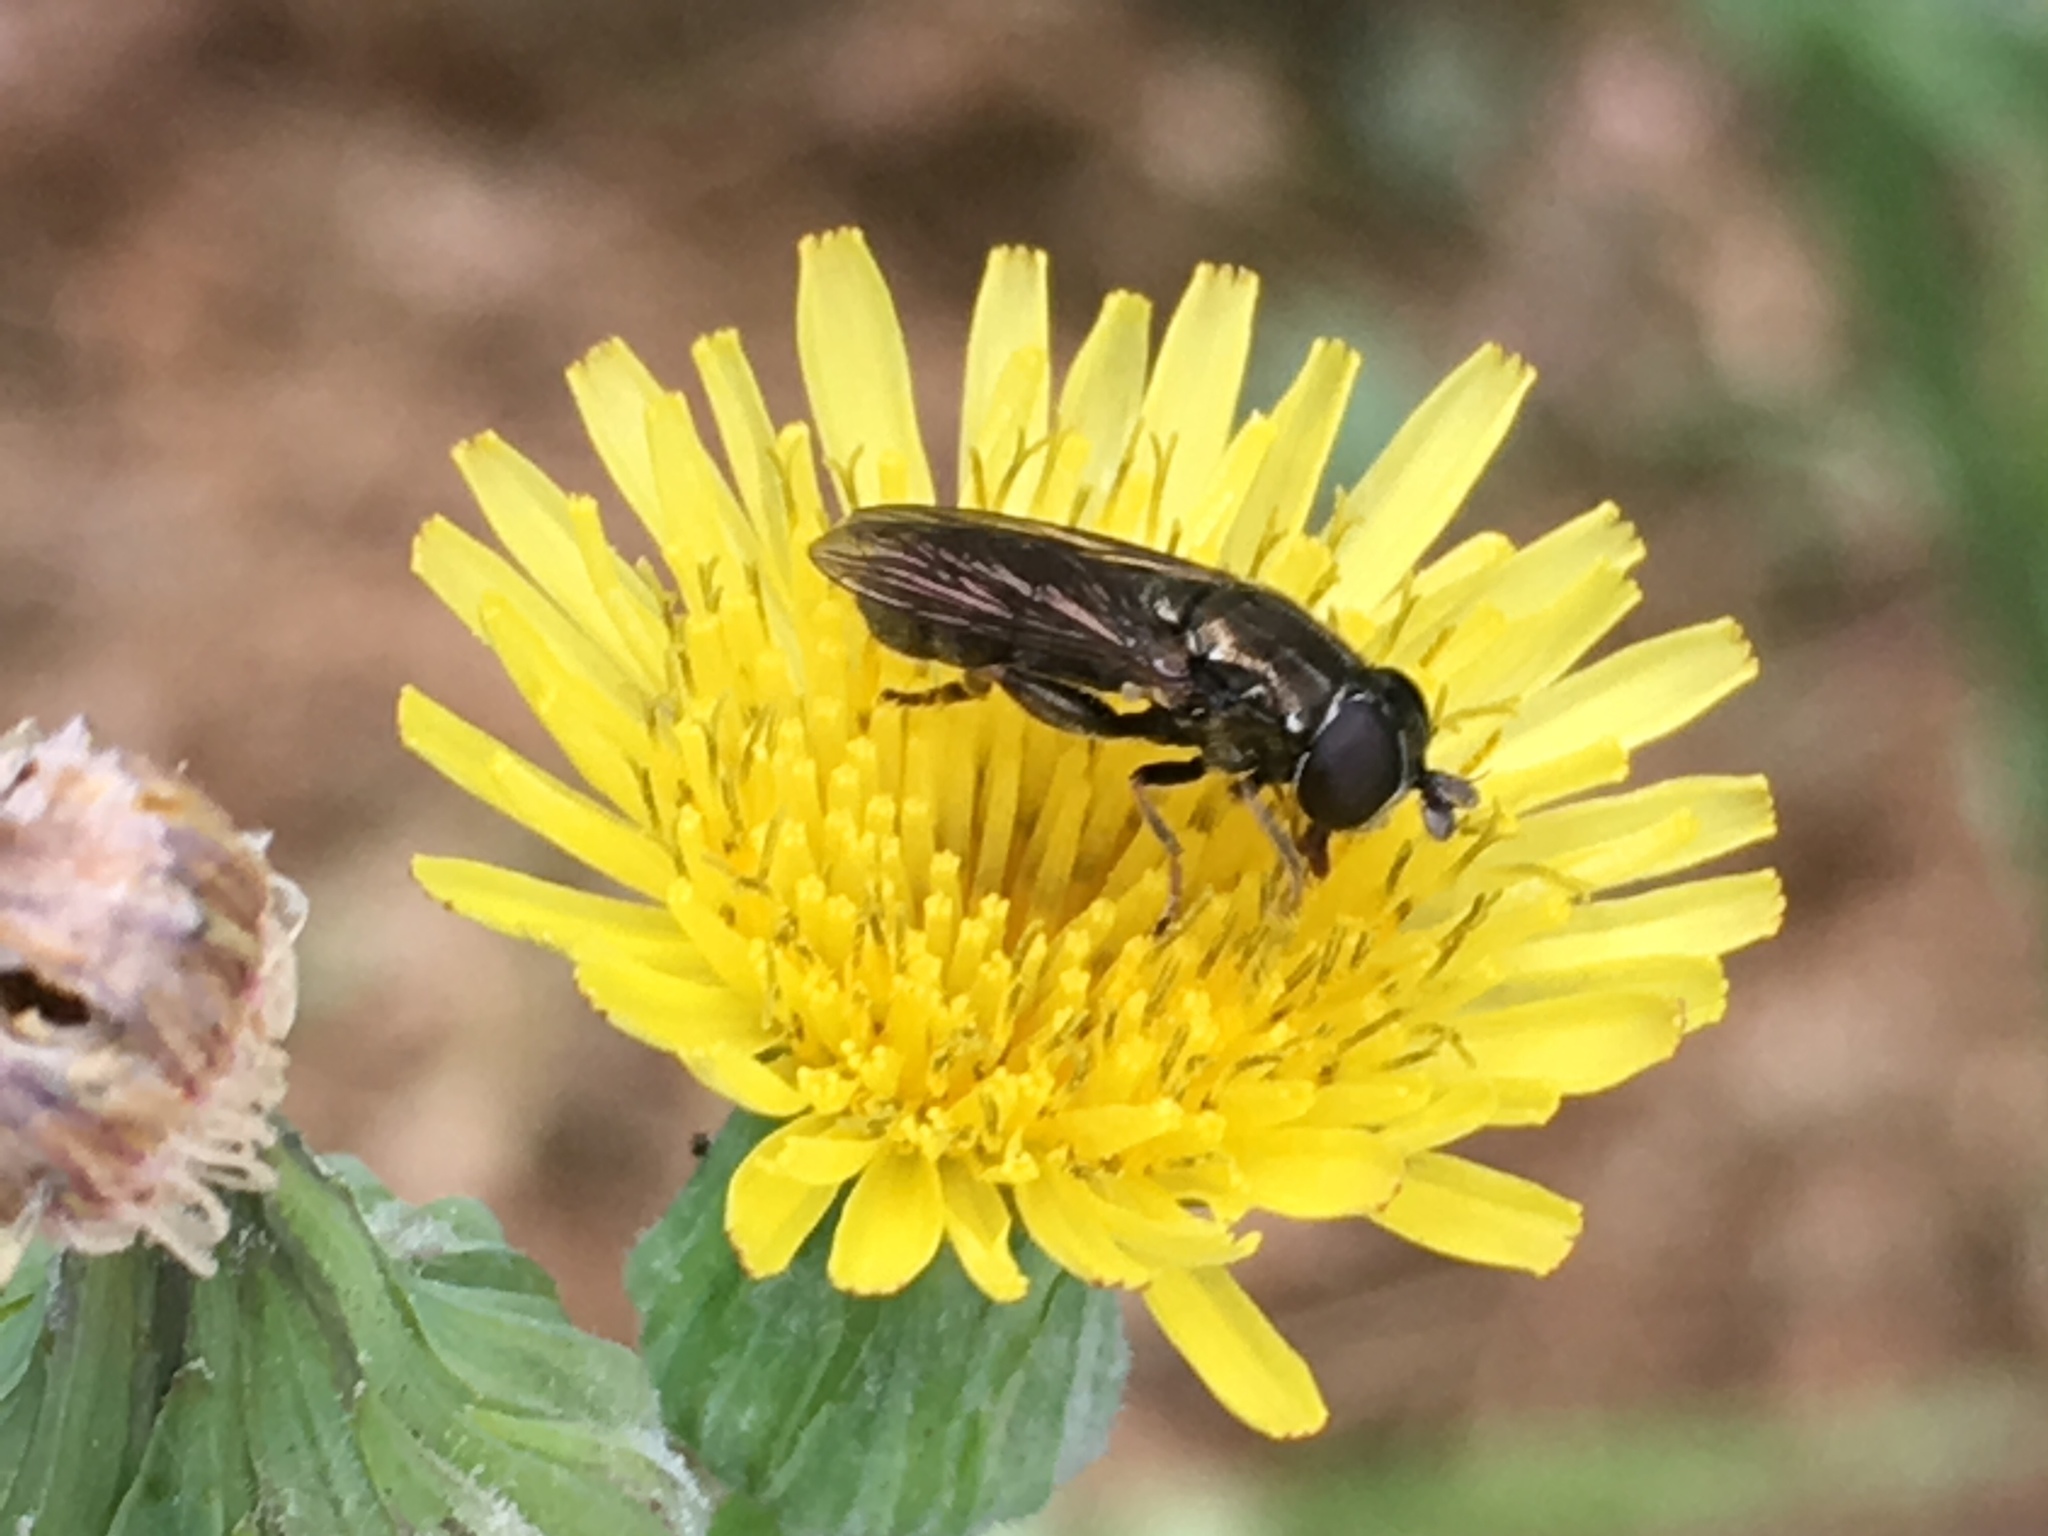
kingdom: Animalia
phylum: Arthropoda
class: Insecta
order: Diptera
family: Syrphidae
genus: Eumerus
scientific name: Eumerus
